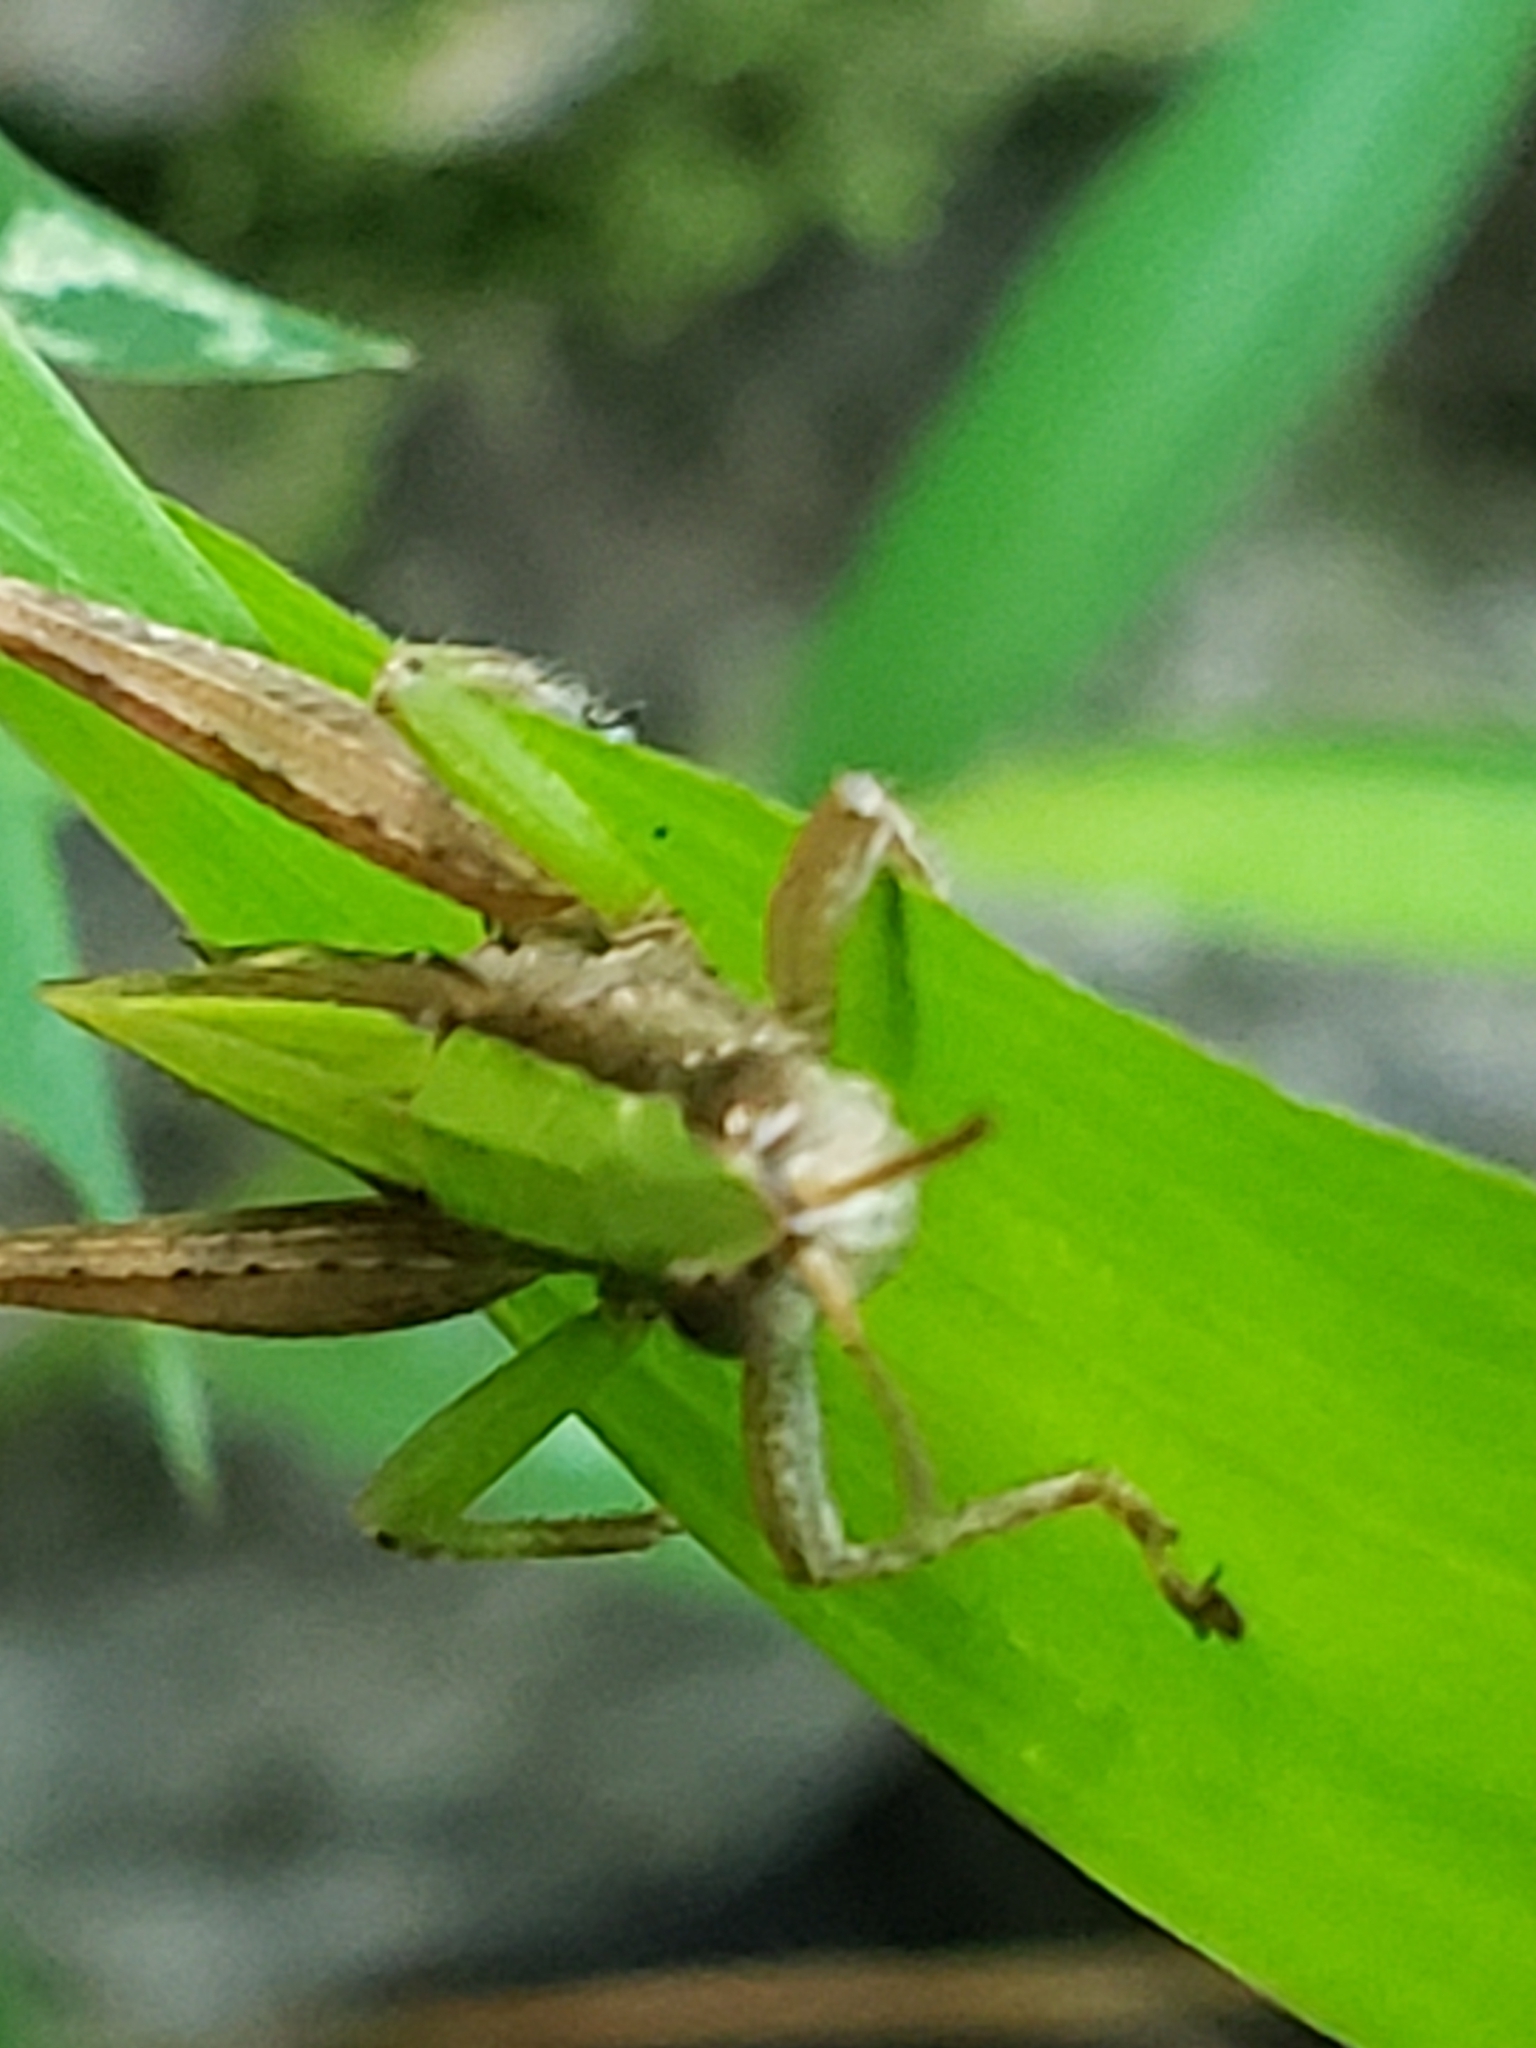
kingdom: Animalia
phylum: Arthropoda
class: Insecta
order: Orthoptera
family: Acrididae
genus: Dichromorpha
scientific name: Dichromorpha viridis
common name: Short-winged green grasshopper
